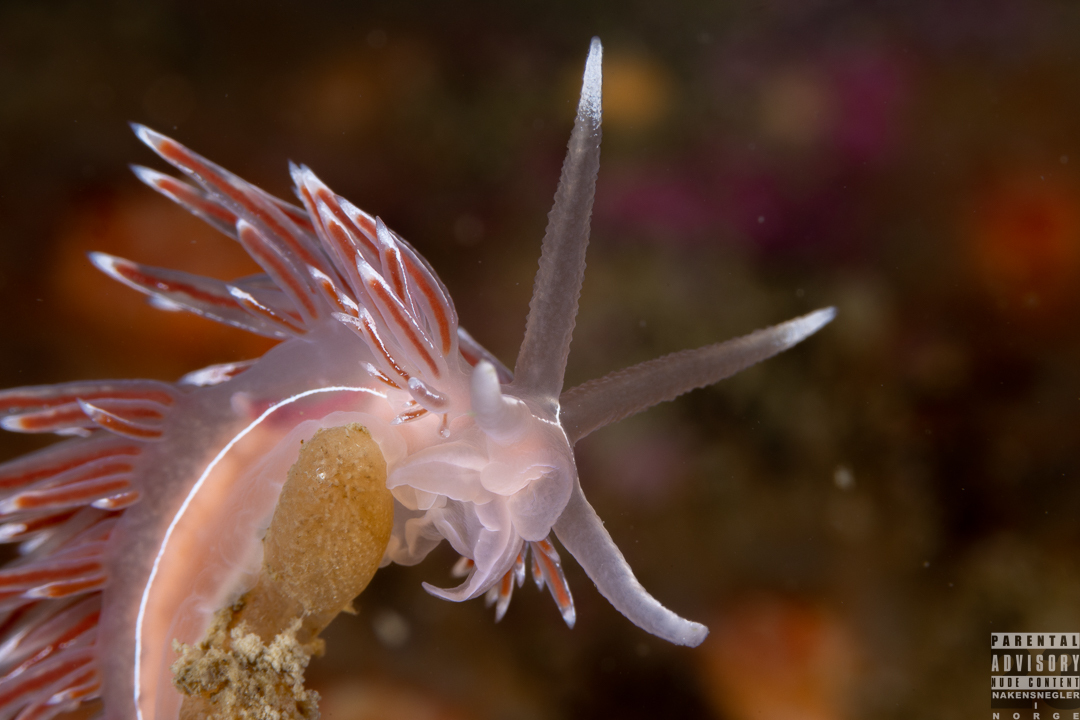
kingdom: Animalia
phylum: Mollusca
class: Gastropoda
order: Nudibranchia
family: Coryphellidae
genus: Coryphella
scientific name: Coryphella lineata
